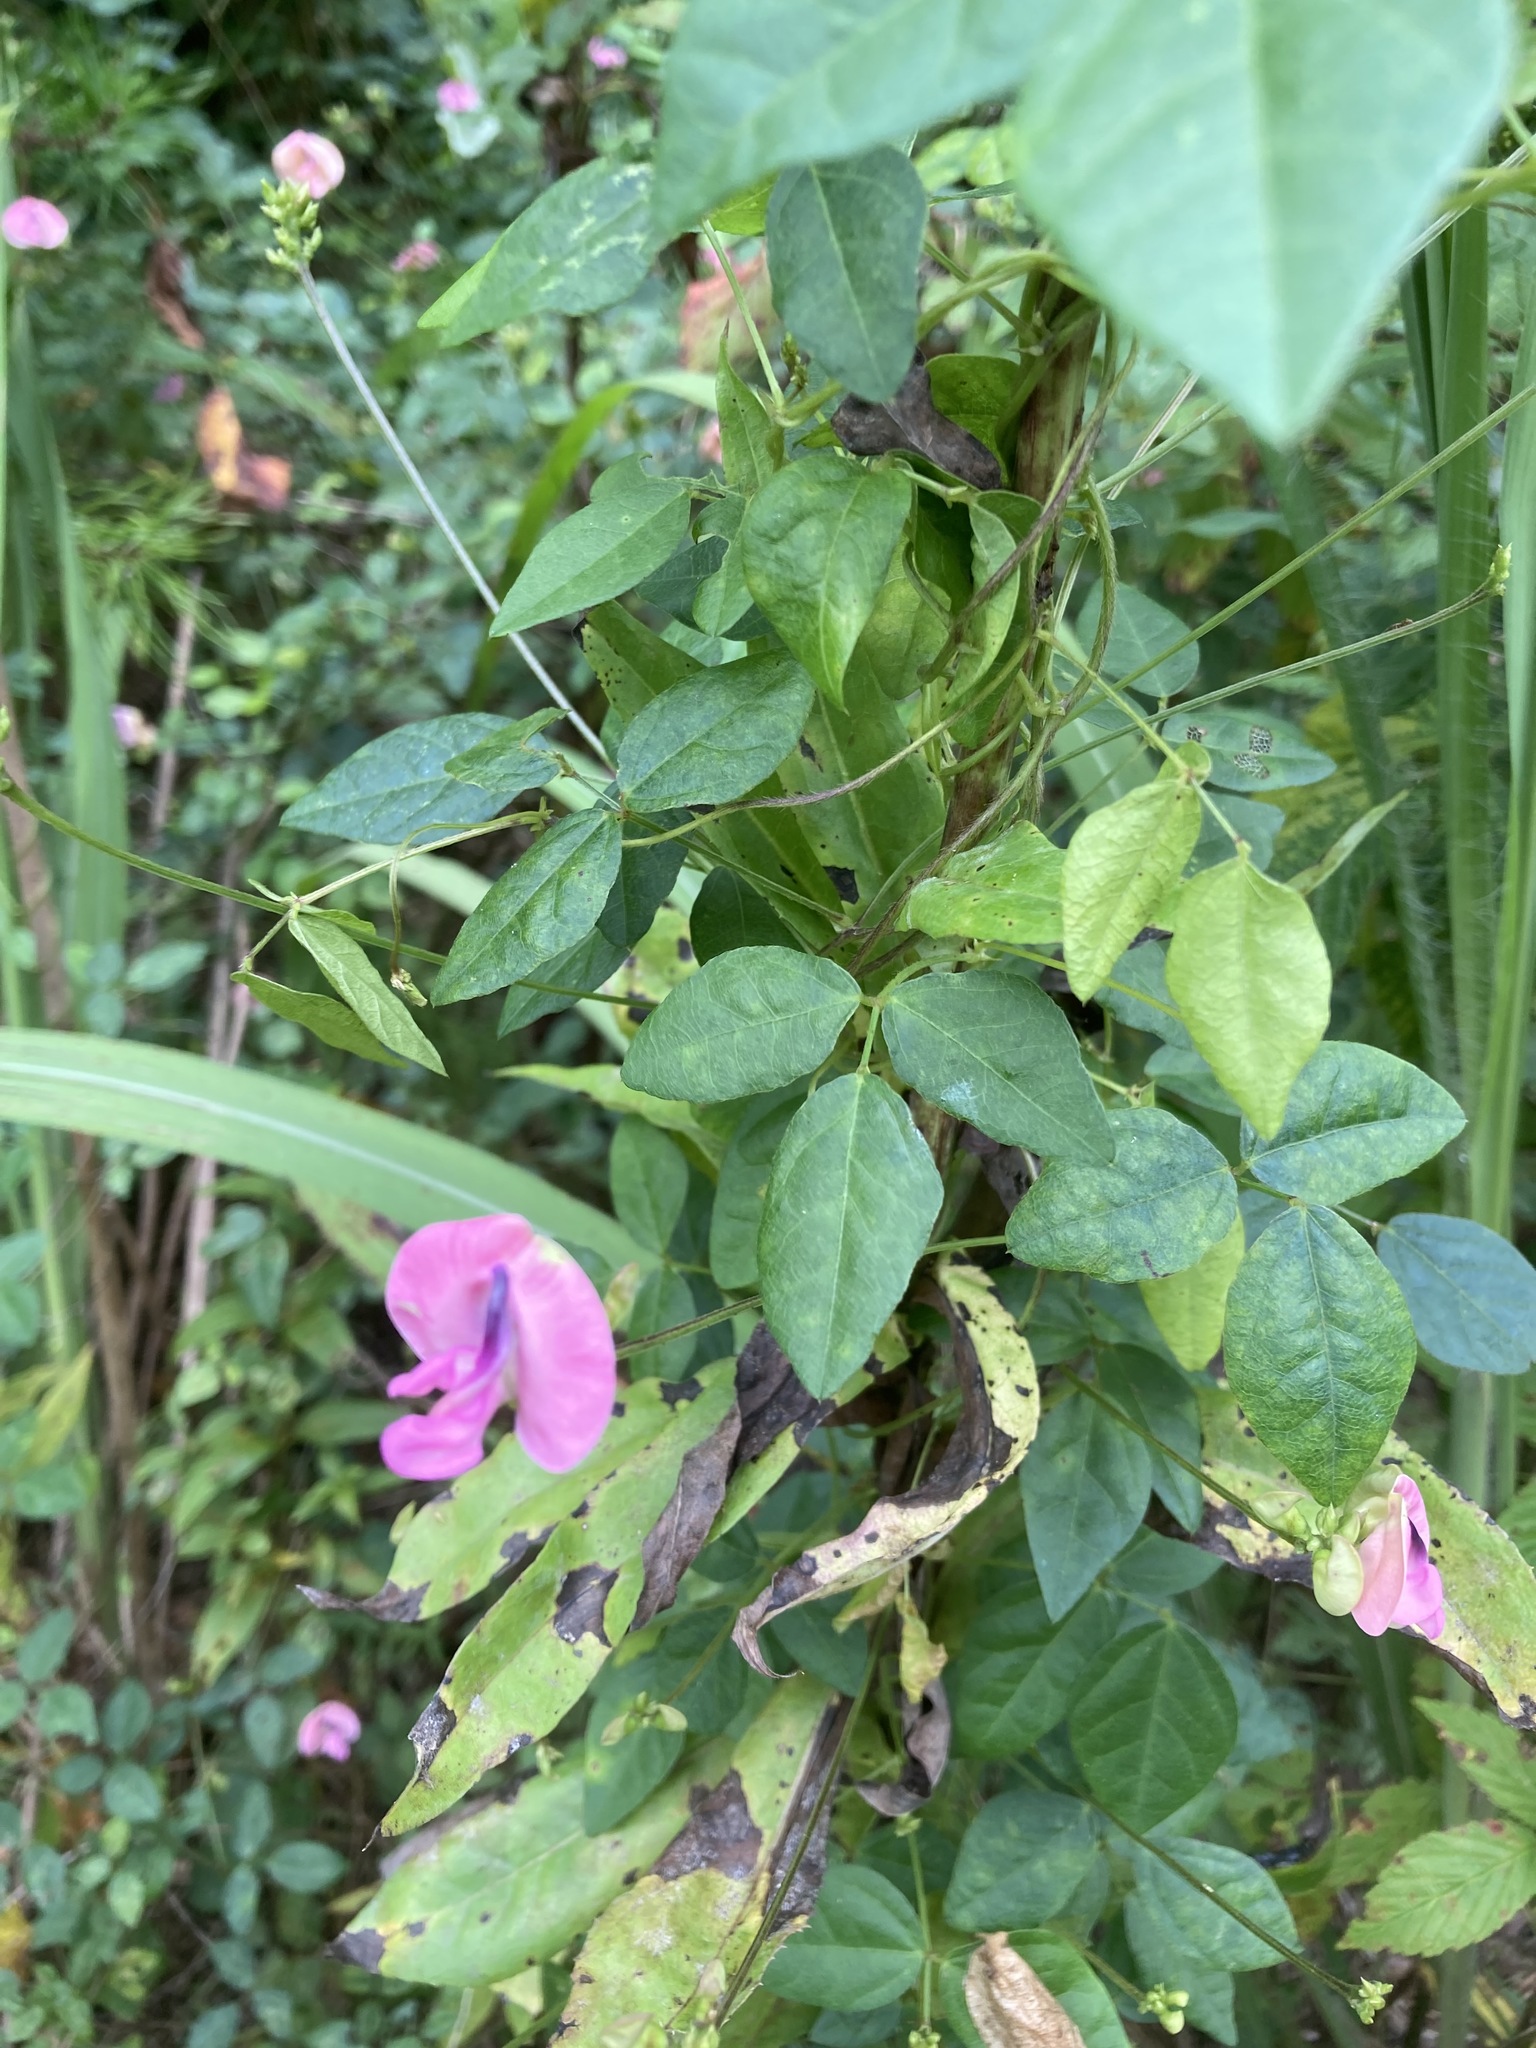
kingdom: Plantae
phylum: Tracheophyta
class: Magnoliopsida
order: Fabales
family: Fabaceae
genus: Strophostyles
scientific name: Strophostyles umbellata
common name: Perennial wild bean
